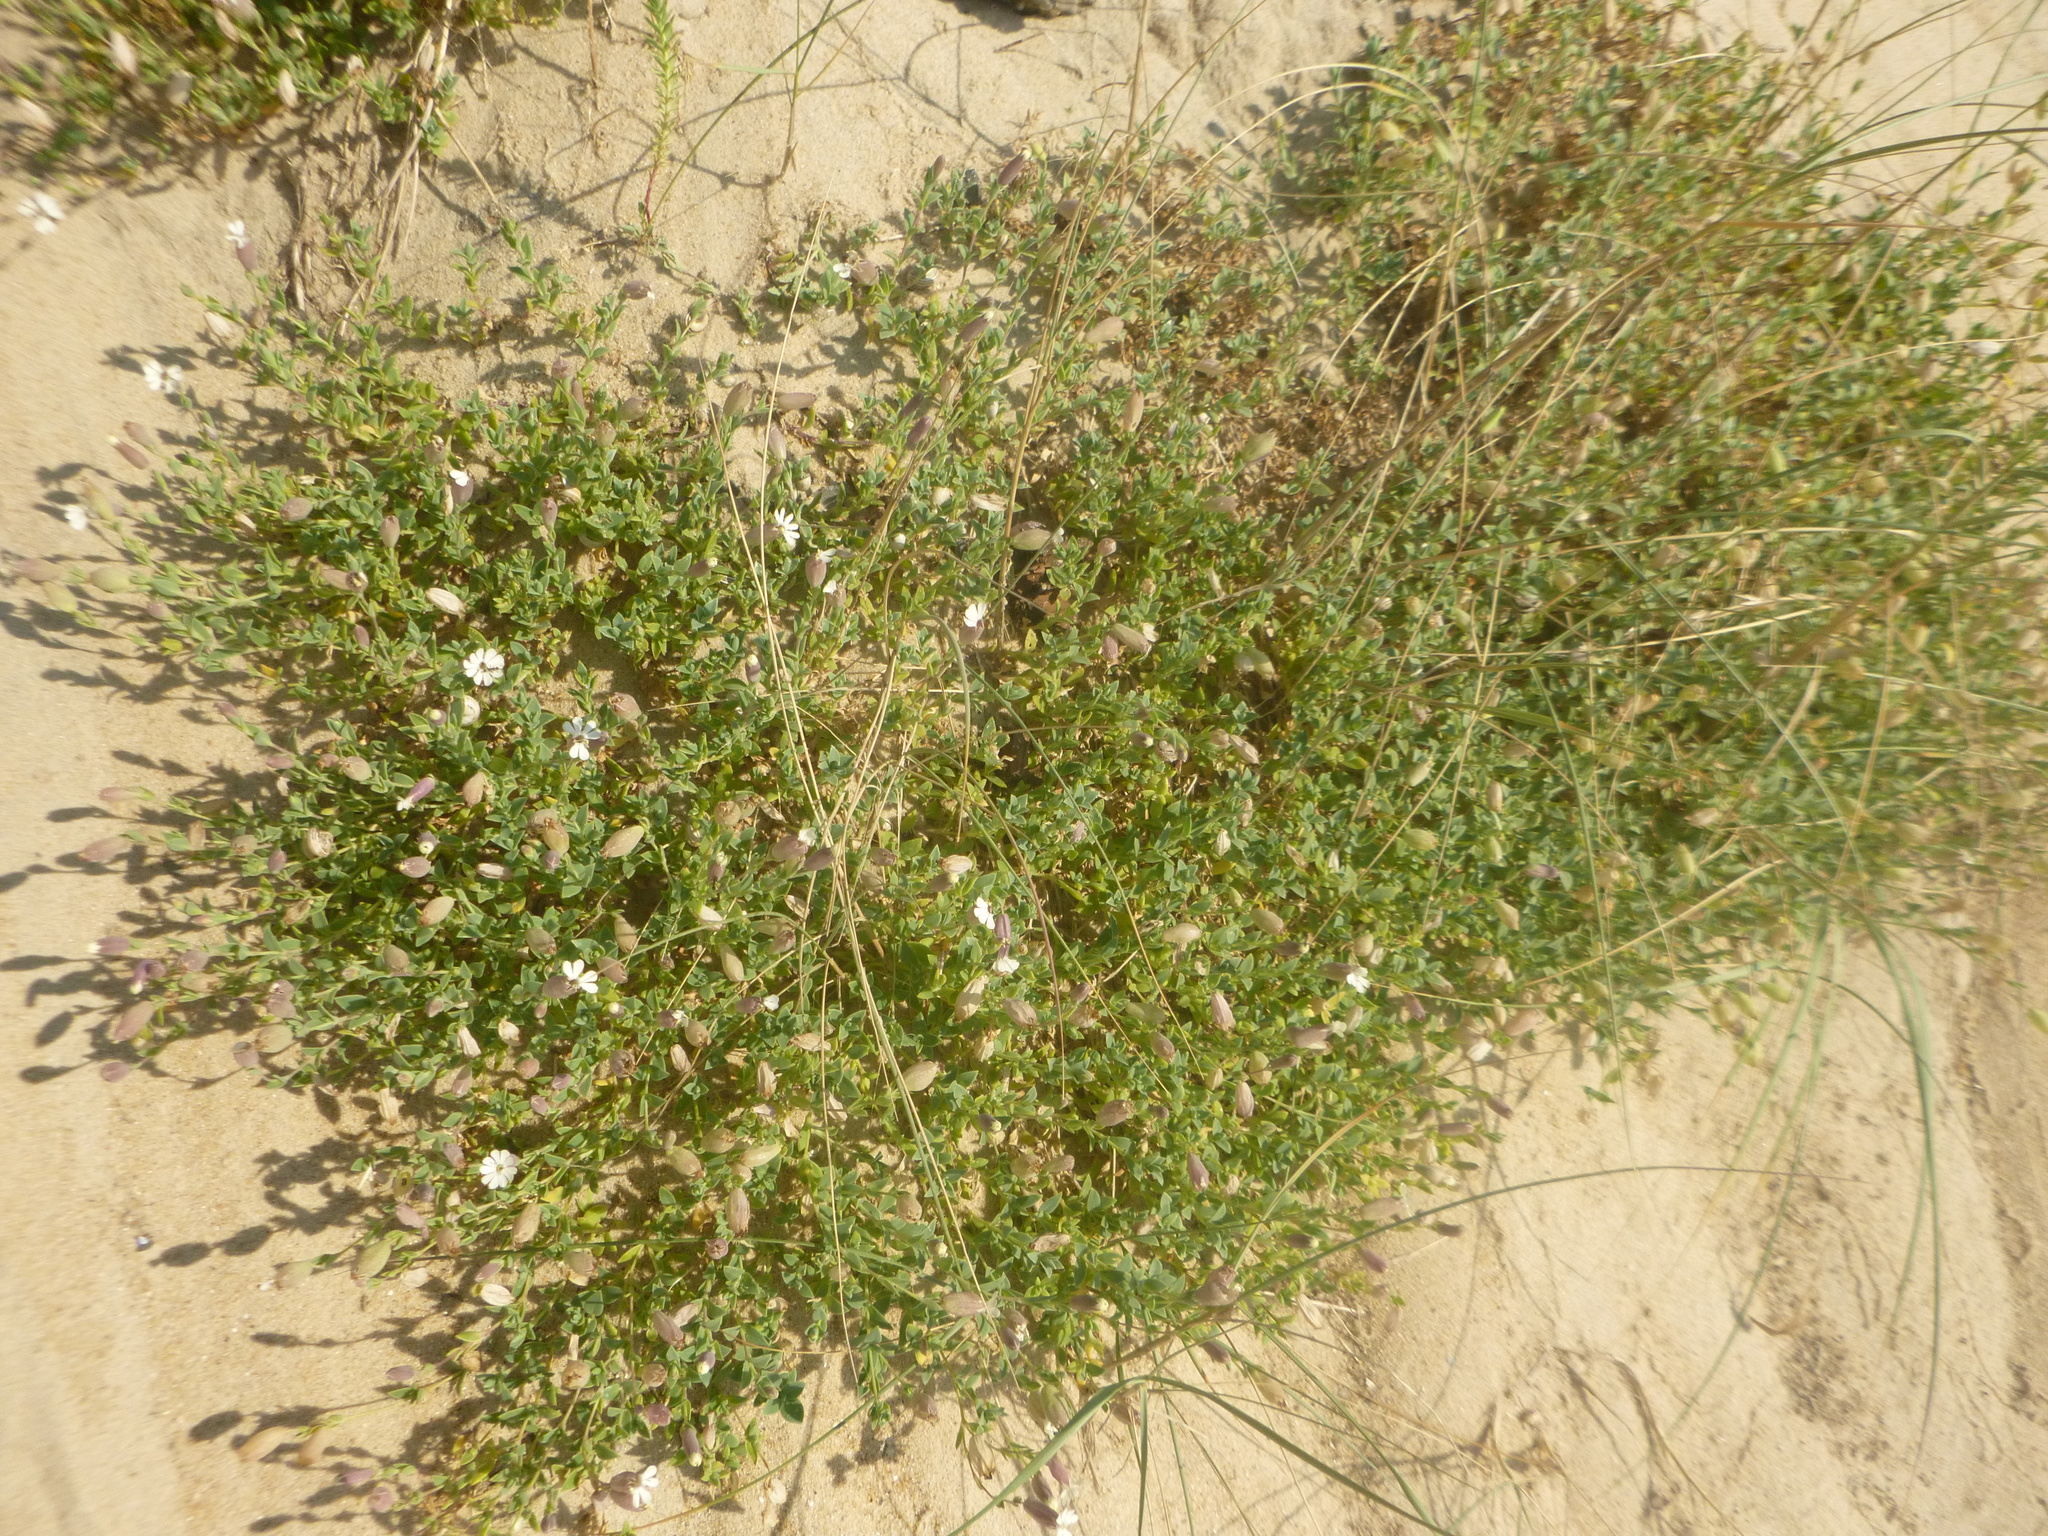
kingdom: Plantae
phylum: Tracheophyta
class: Magnoliopsida
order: Caryophyllales
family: Caryophyllaceae
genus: Silene
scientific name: Silene uniflora
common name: Sea campion
